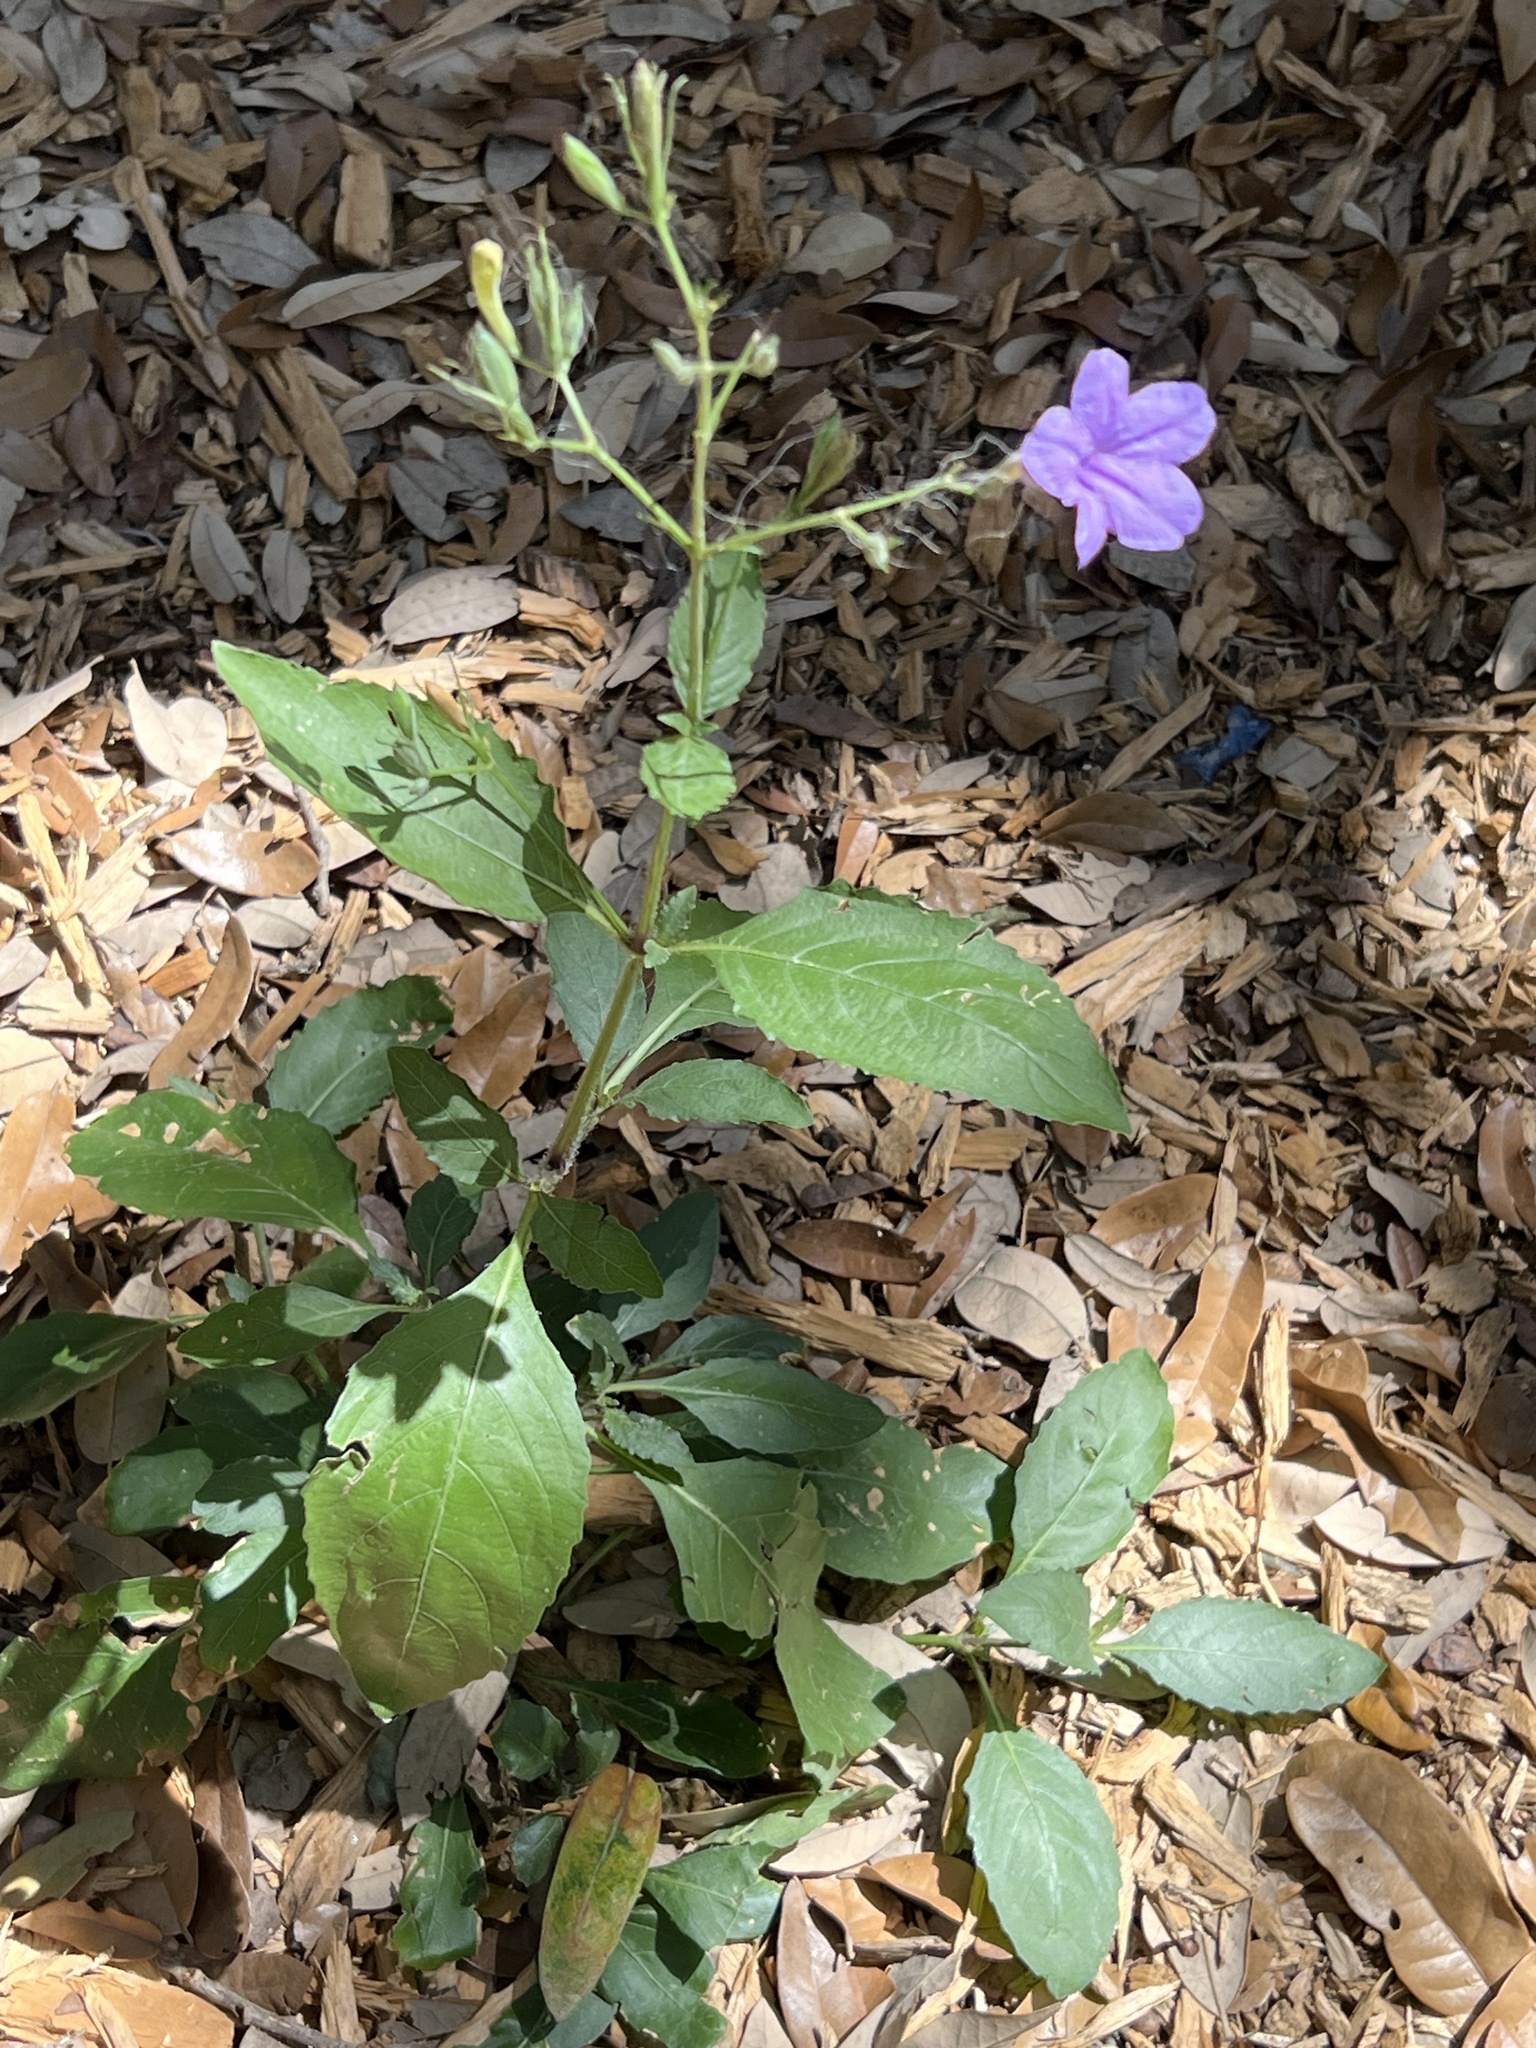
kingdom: Plantae
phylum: Tracheophyta
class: Magnoliopsida
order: Lamiales
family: Acanthaceae
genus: Ruellia
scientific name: Ruellia ciliatiflora
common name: Hairyflower wild petunia
